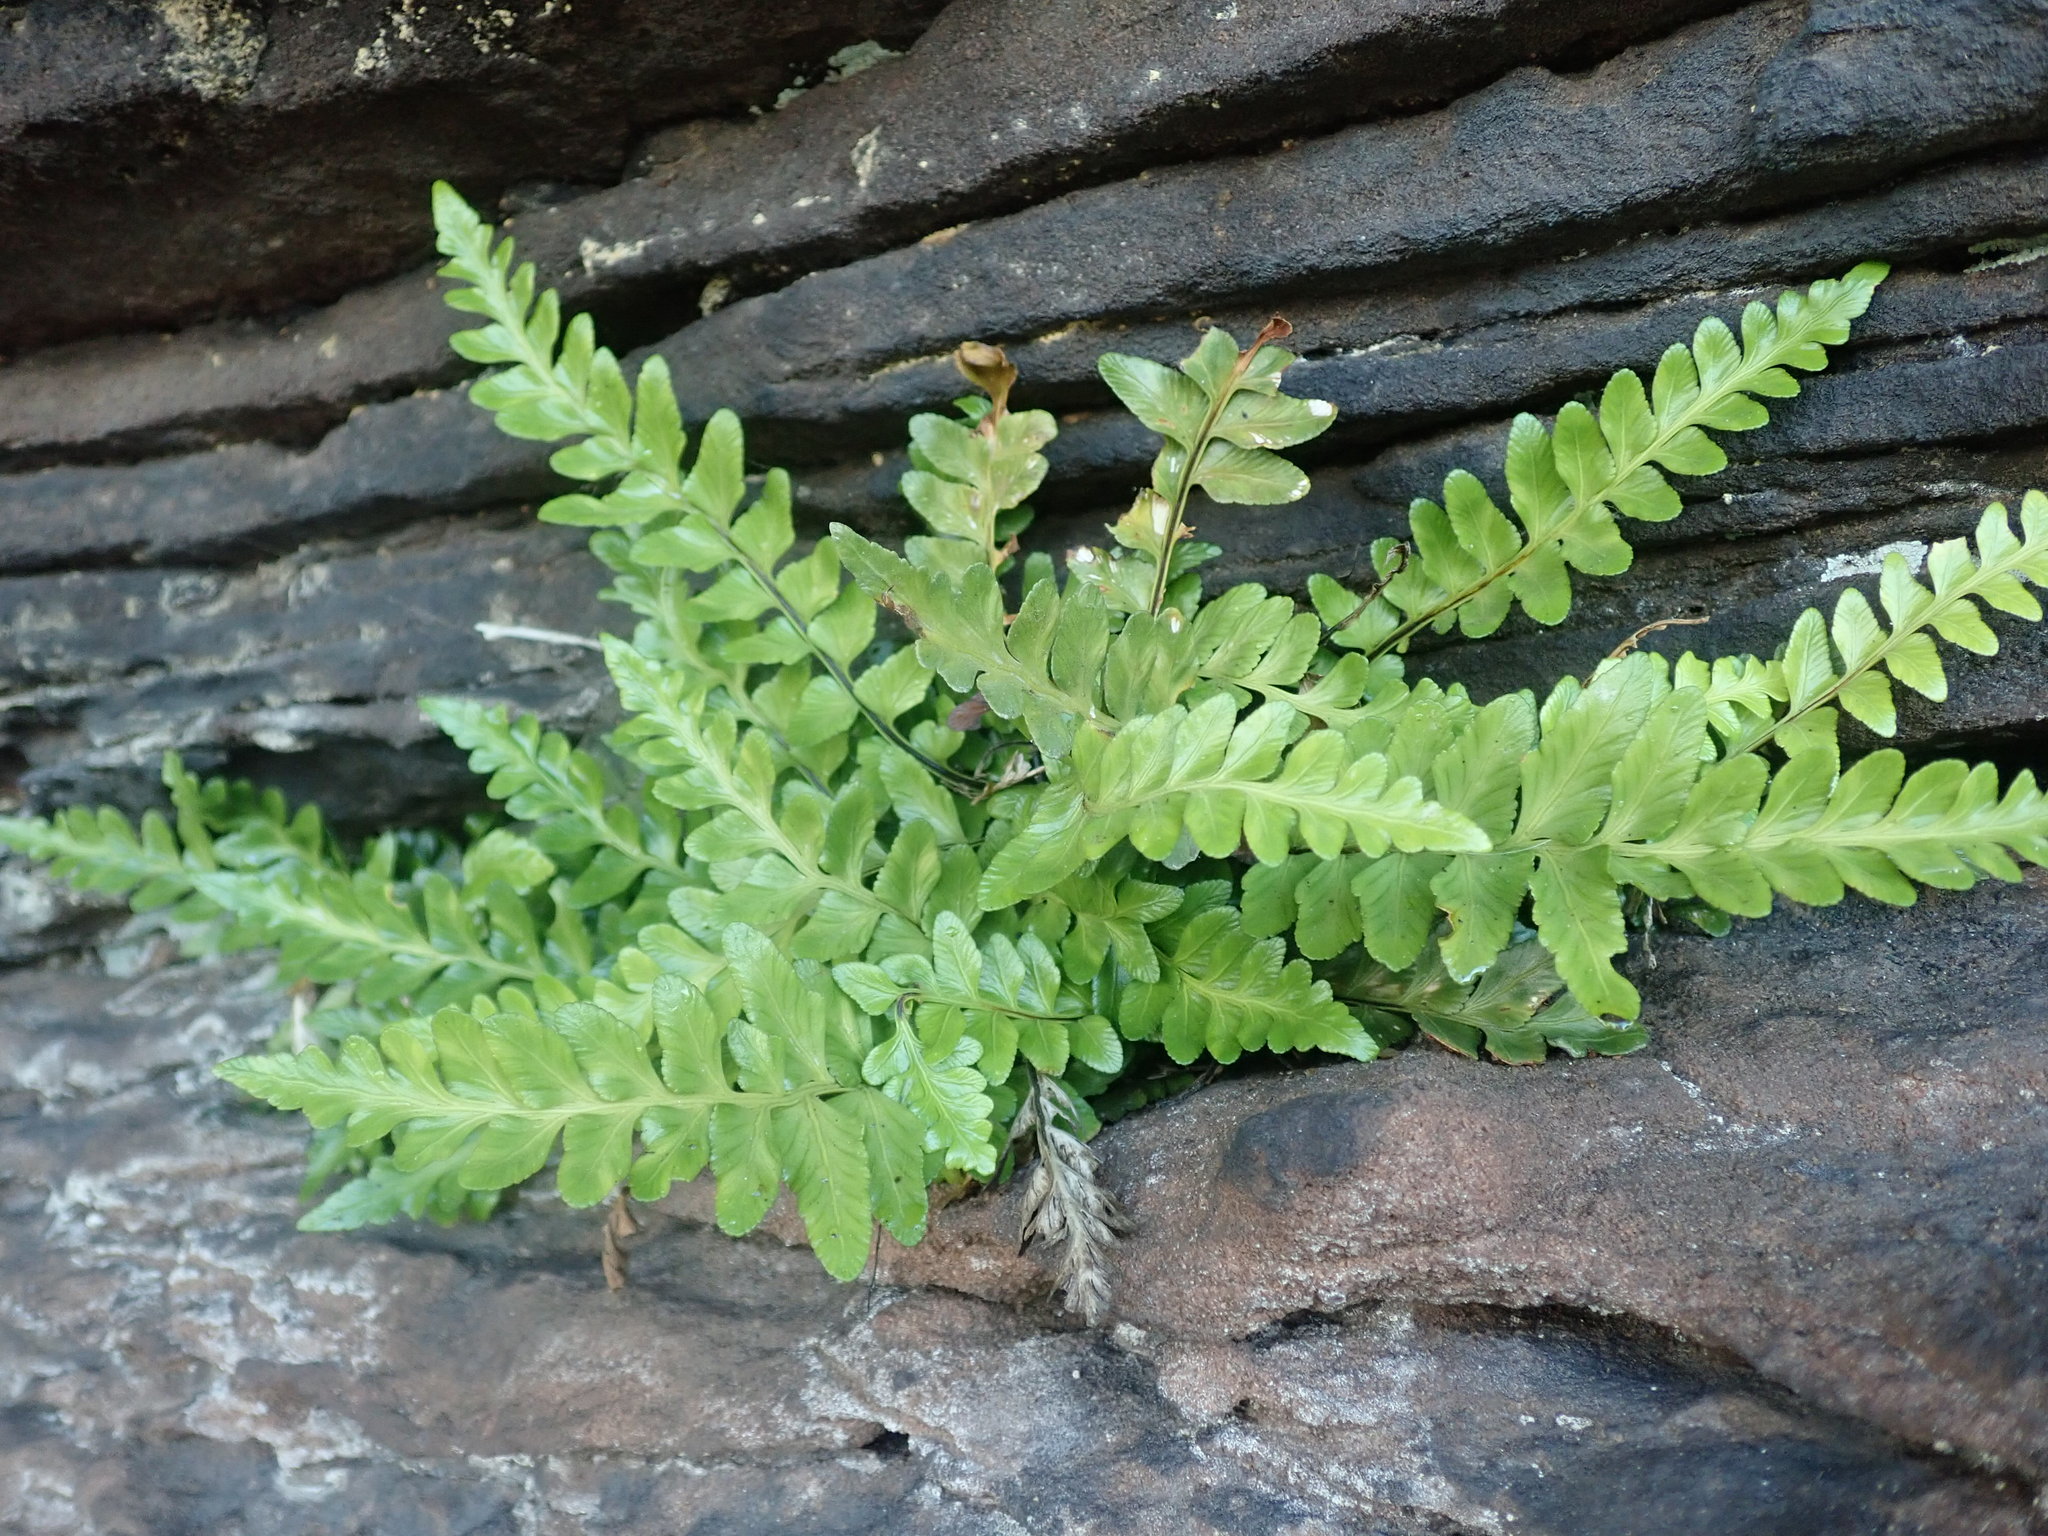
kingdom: Plantae
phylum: Tracheophyta
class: Polypodiopsida
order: Polypodiales
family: Aspleniaceae
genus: Asplenium
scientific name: Asplenium marinum
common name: Sea spleenwort
